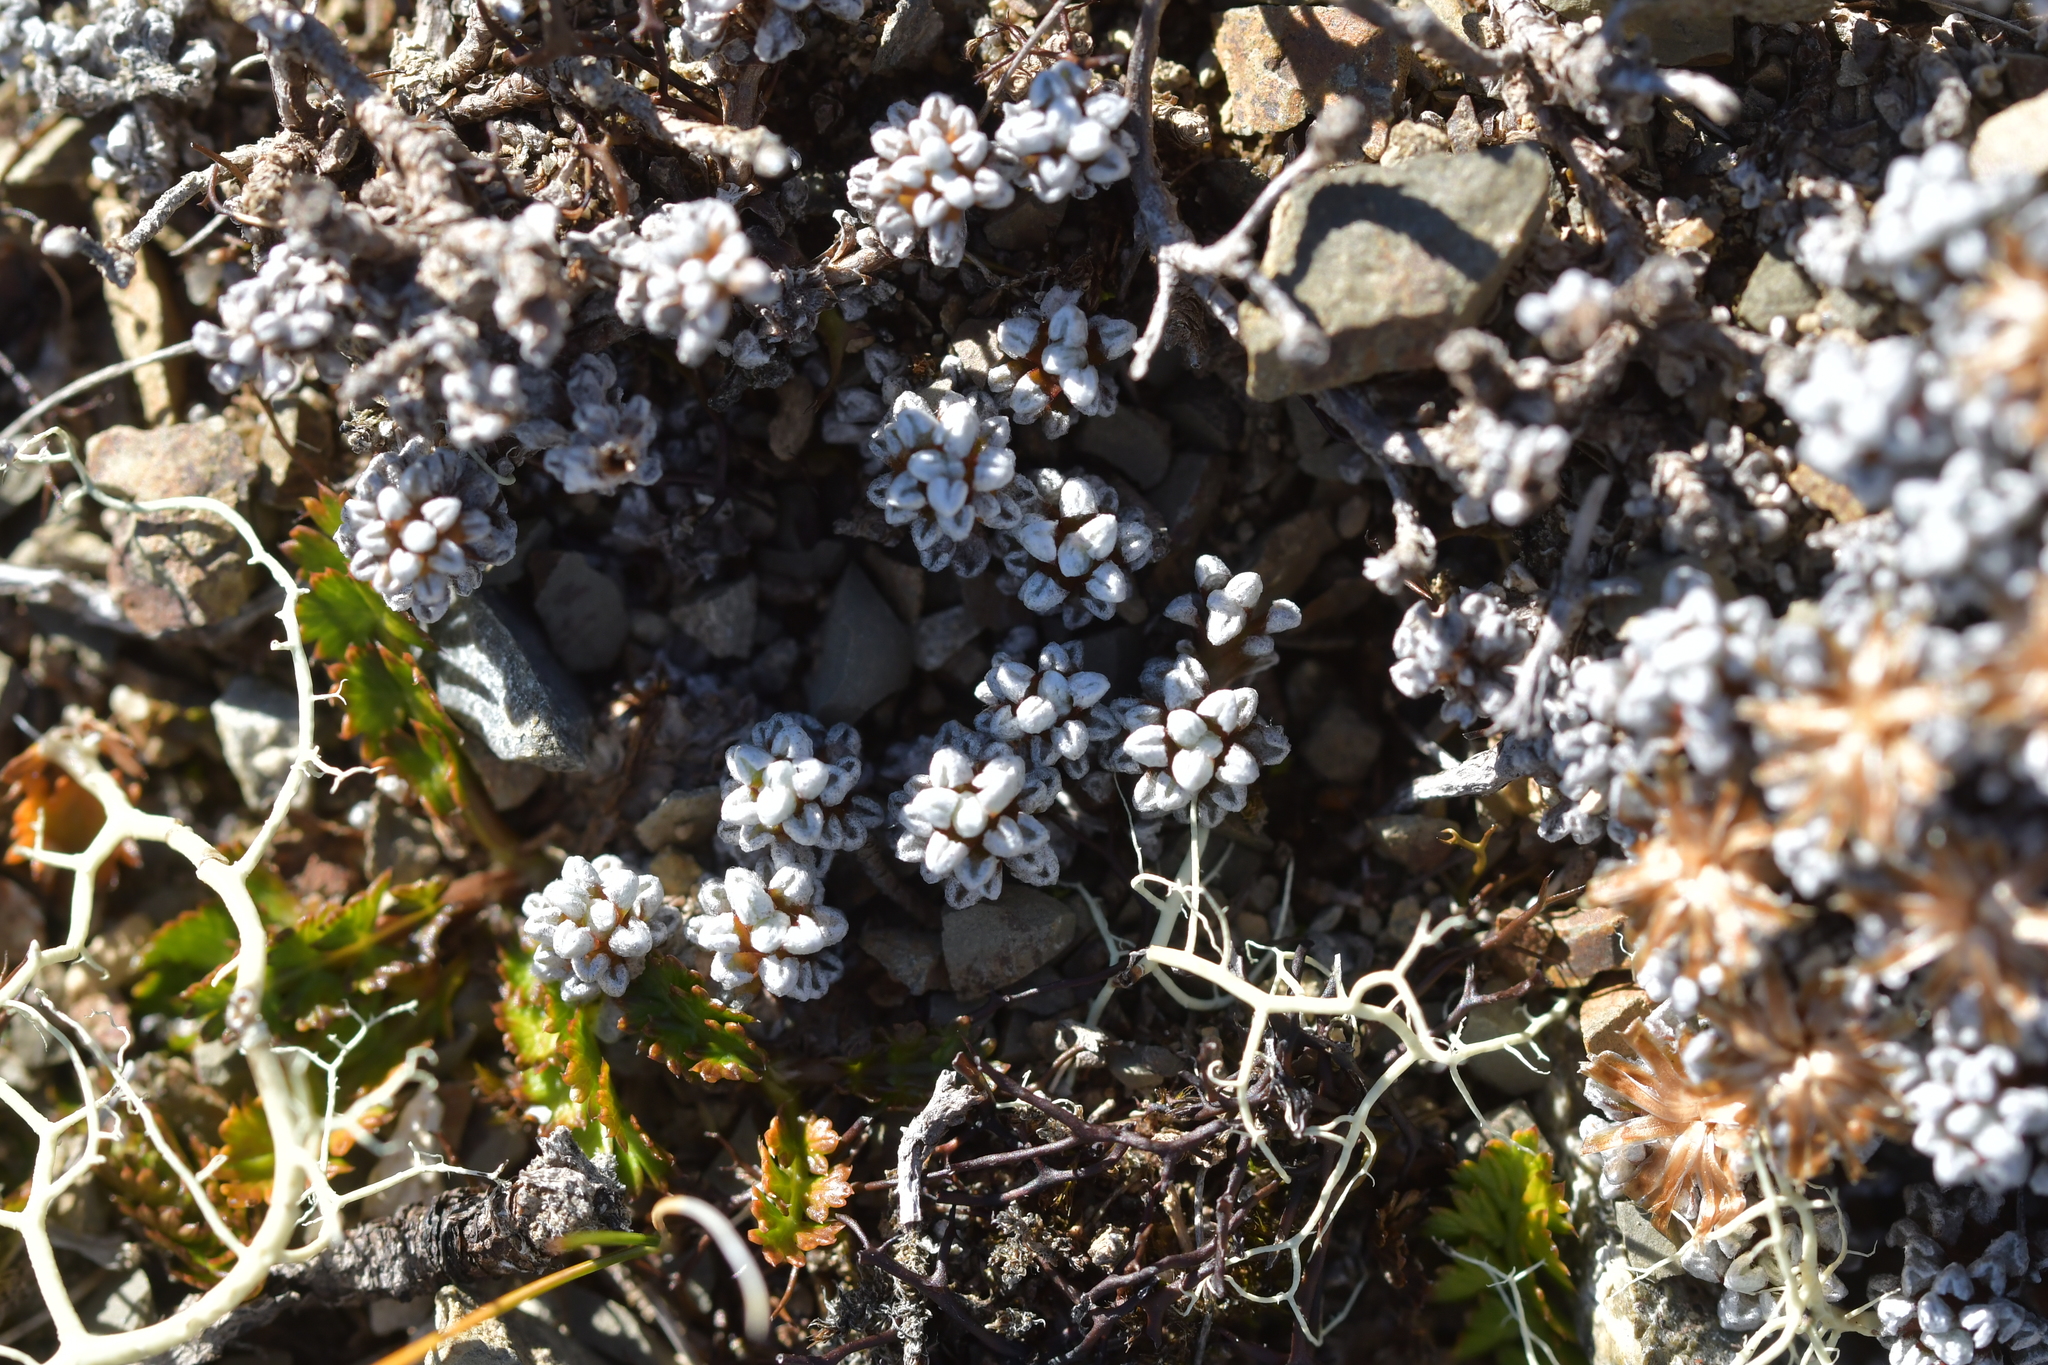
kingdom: Plantae
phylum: Tracheophyta
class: Magnoliopsida
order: Asterales
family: Asteraceae
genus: Raoulia
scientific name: Raoulia albosericea
